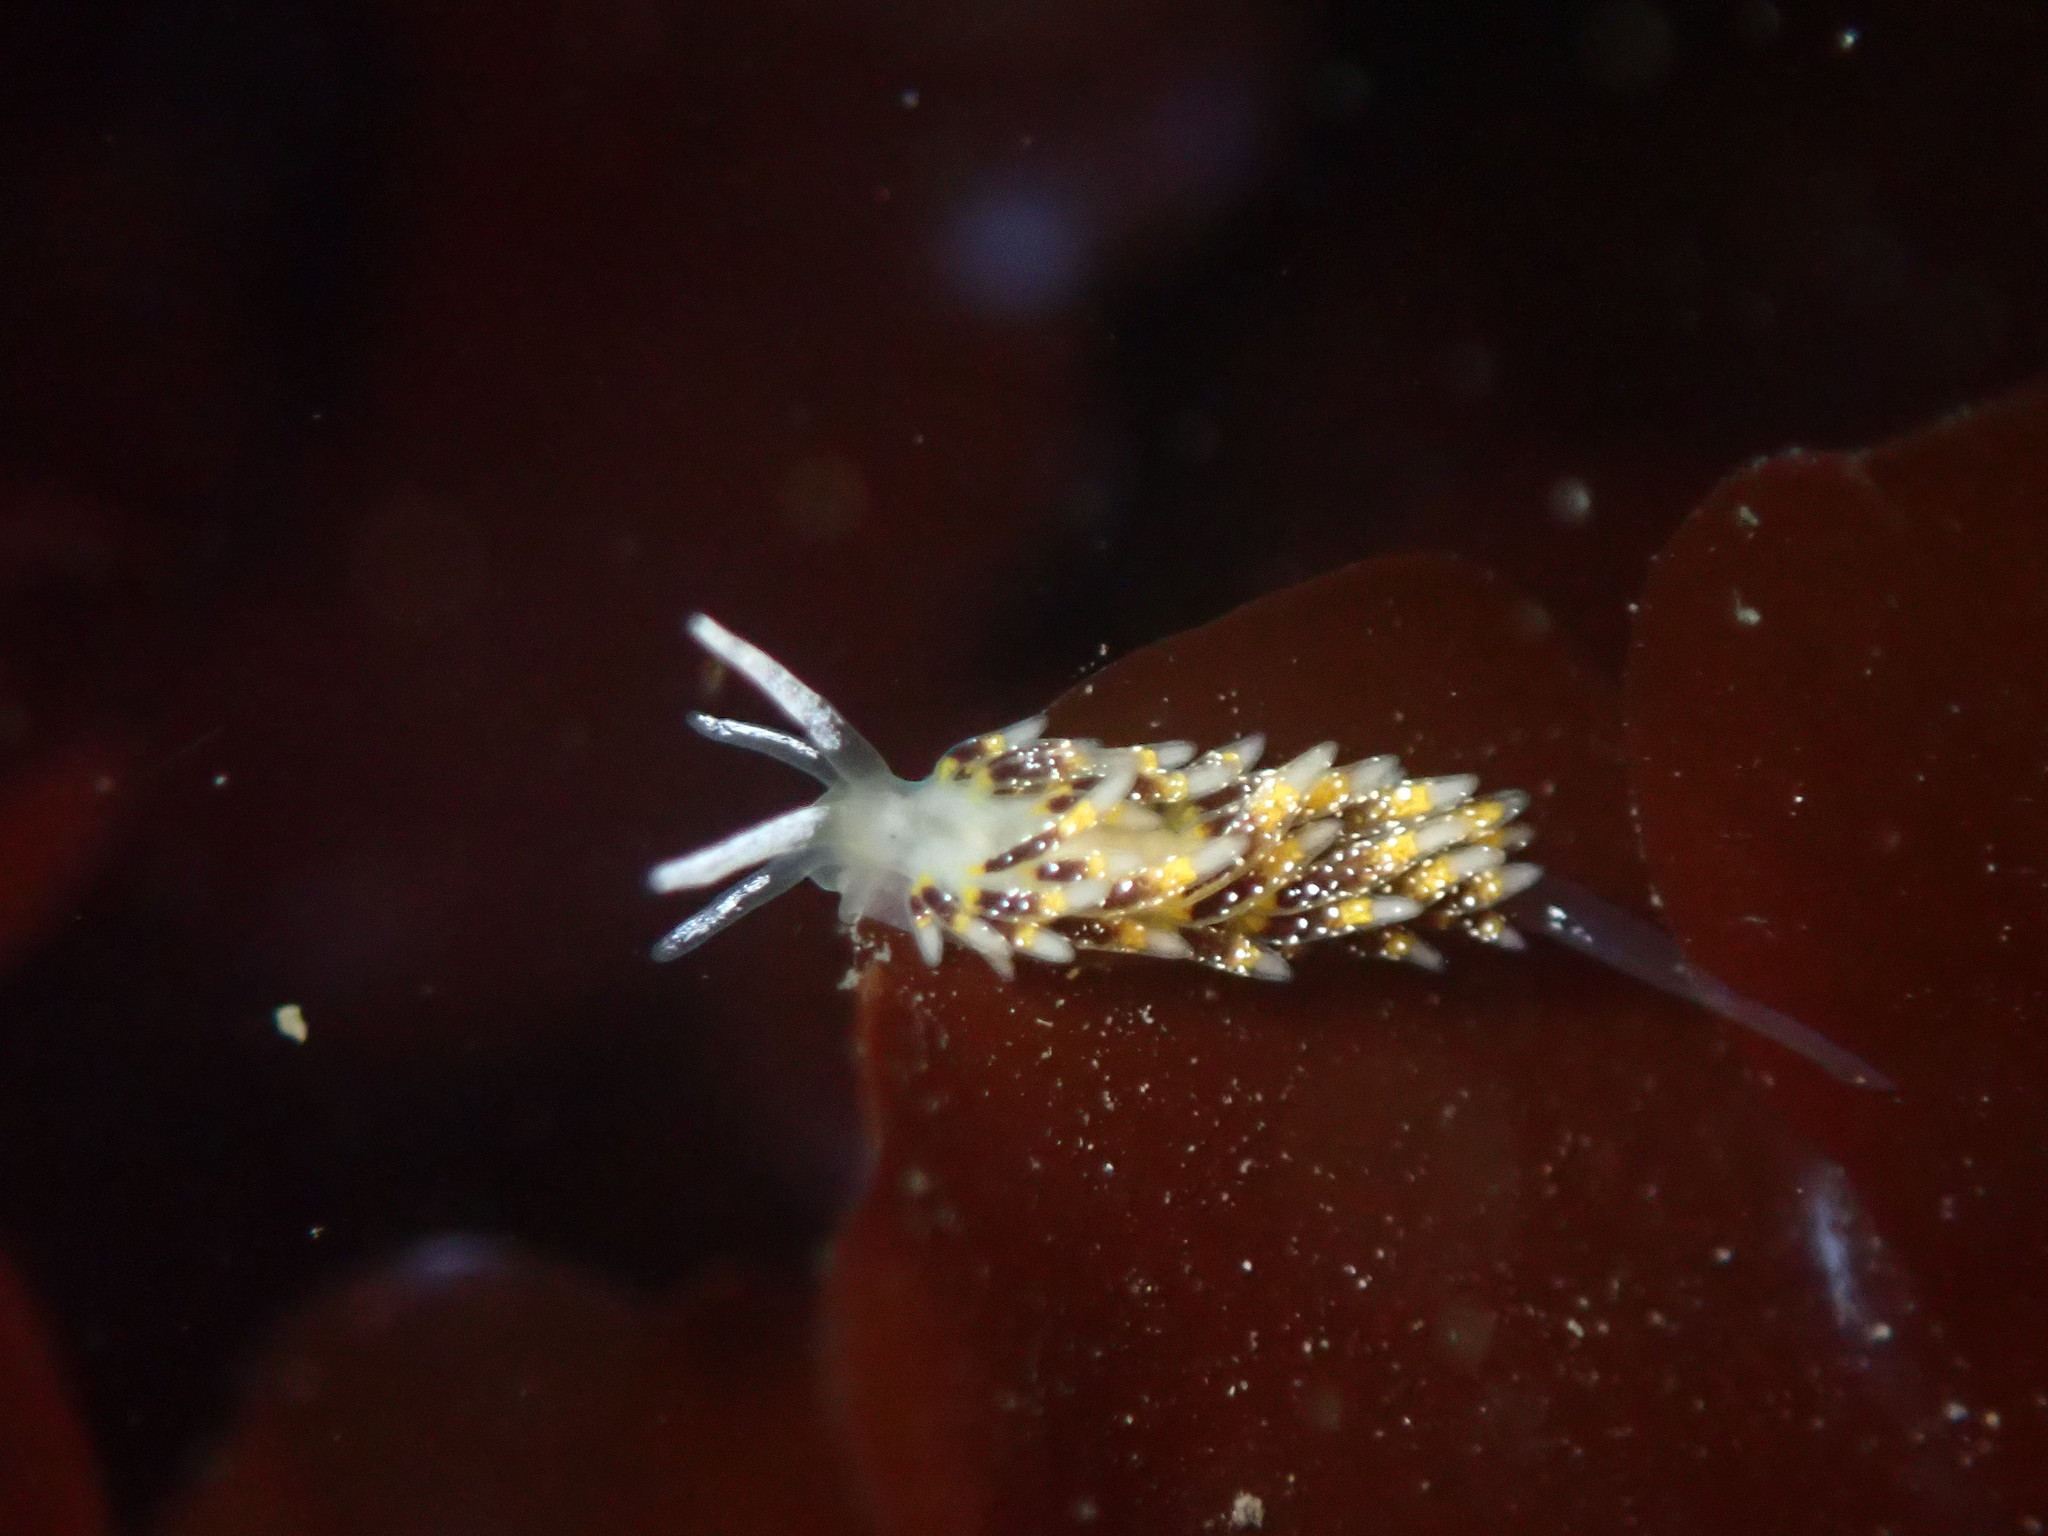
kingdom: Animalia
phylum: Mollusca
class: Gastropoda
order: Nudibranchia
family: Trinchesiidae
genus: Zelentia
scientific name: Zelentia fulgens
